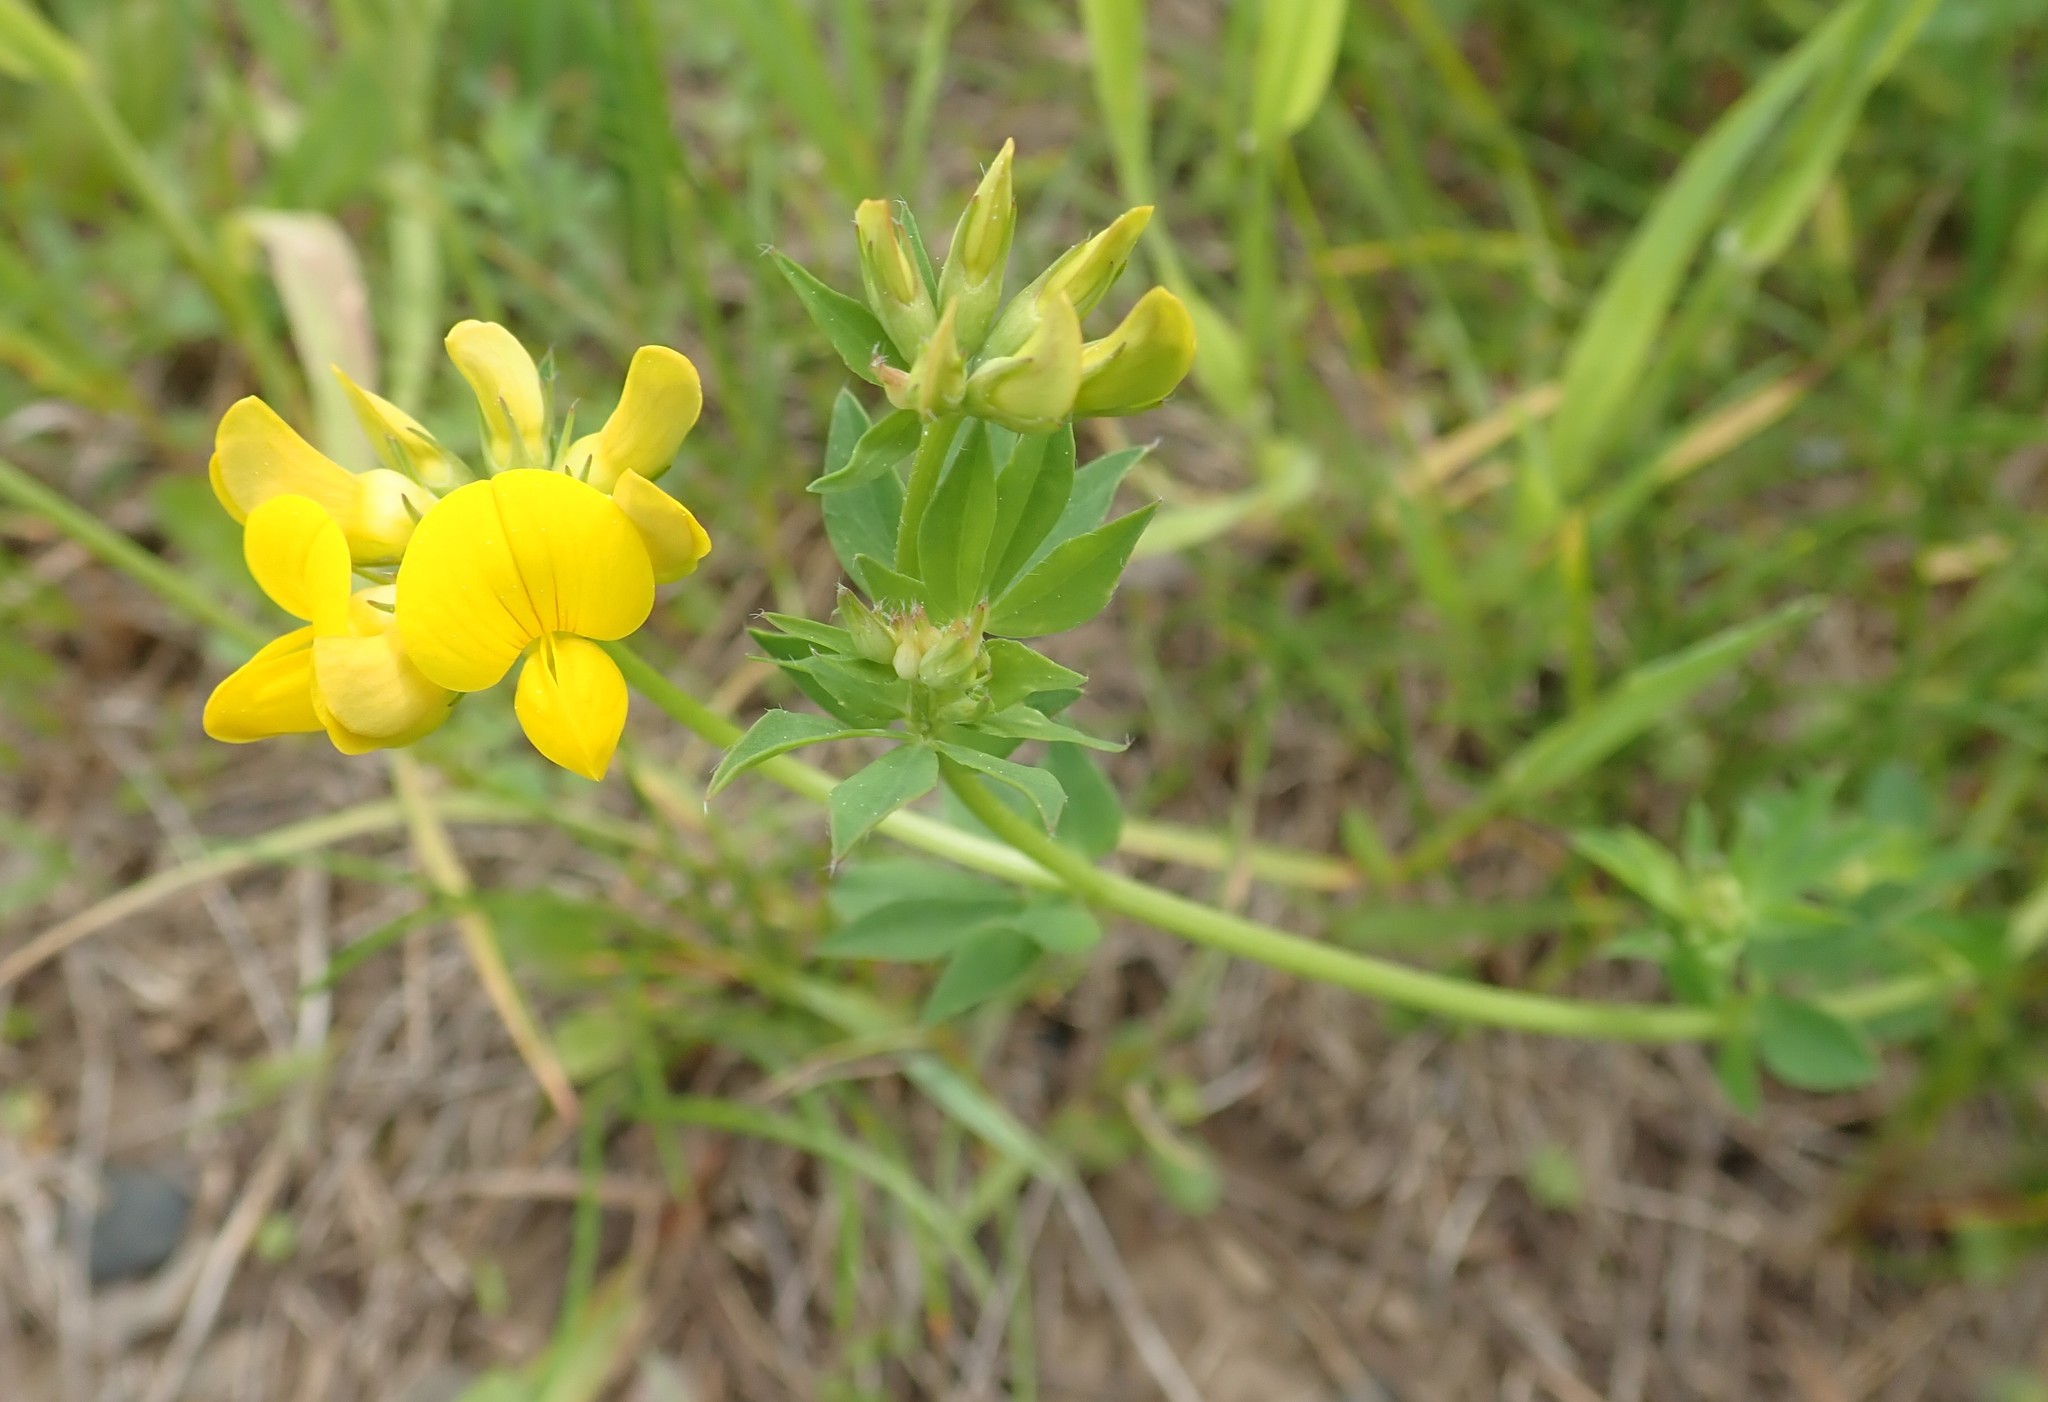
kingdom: Plantae
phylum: Tracheophyta
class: Magnoliopsida
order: Fabales
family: Fabaceae
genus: Lotus
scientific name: Lotus corniculatus
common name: Common bird's-foot-trefoil
